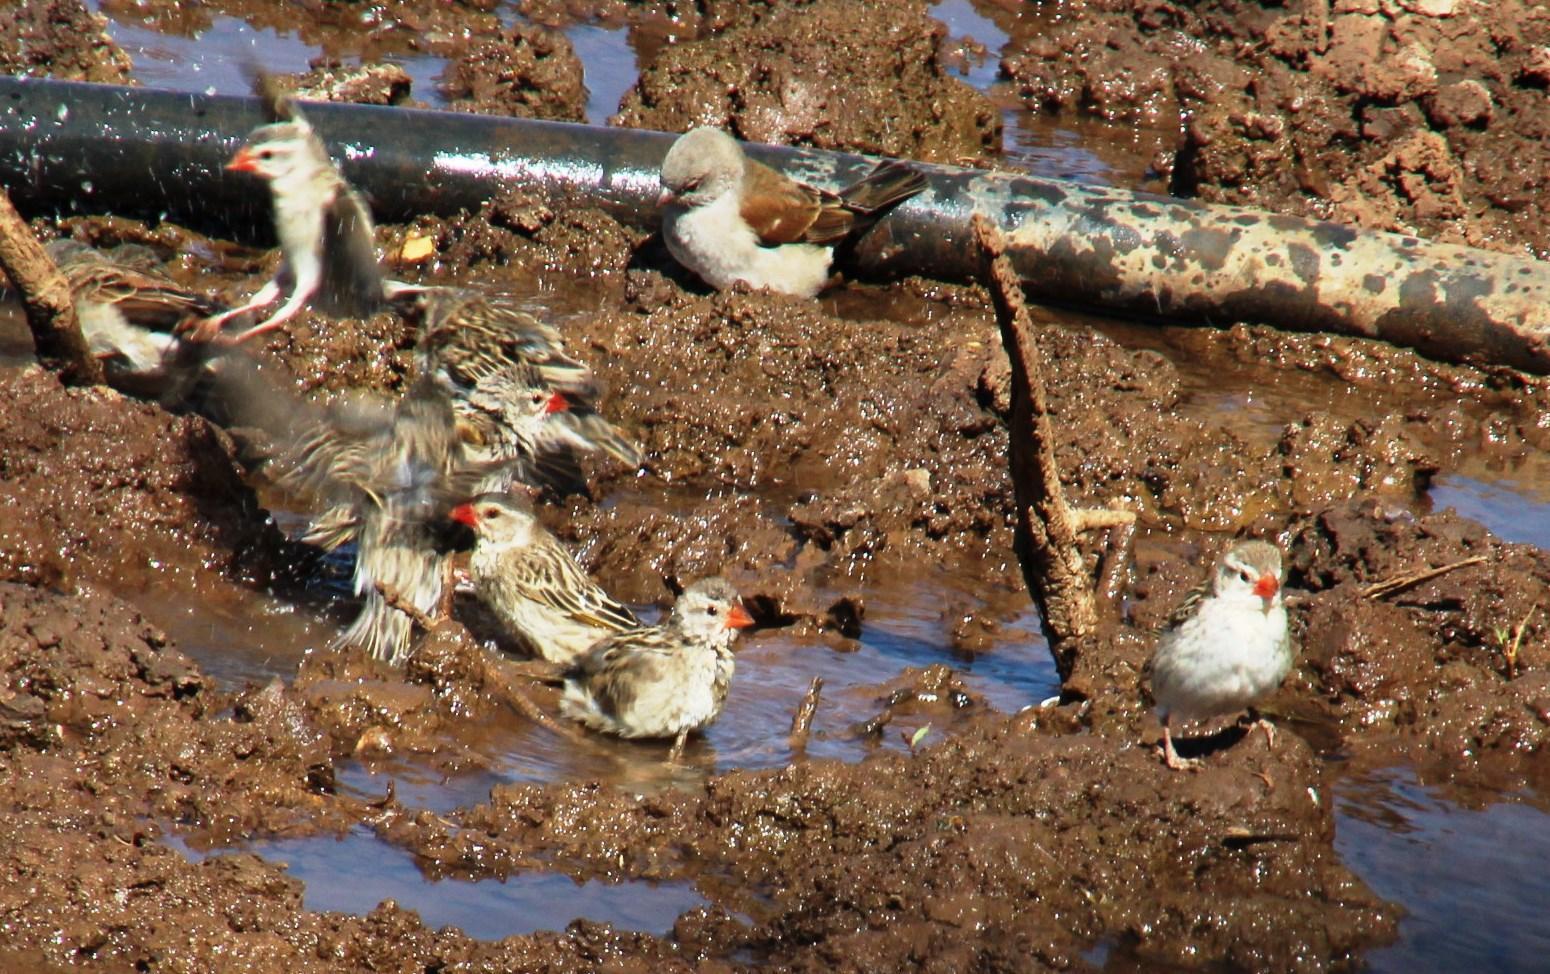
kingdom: Animalia
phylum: Chordata
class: Aves
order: Passeriformes
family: Passeridae
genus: Passer
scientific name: Passer diffusus
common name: Southern grey-headed sparrow
